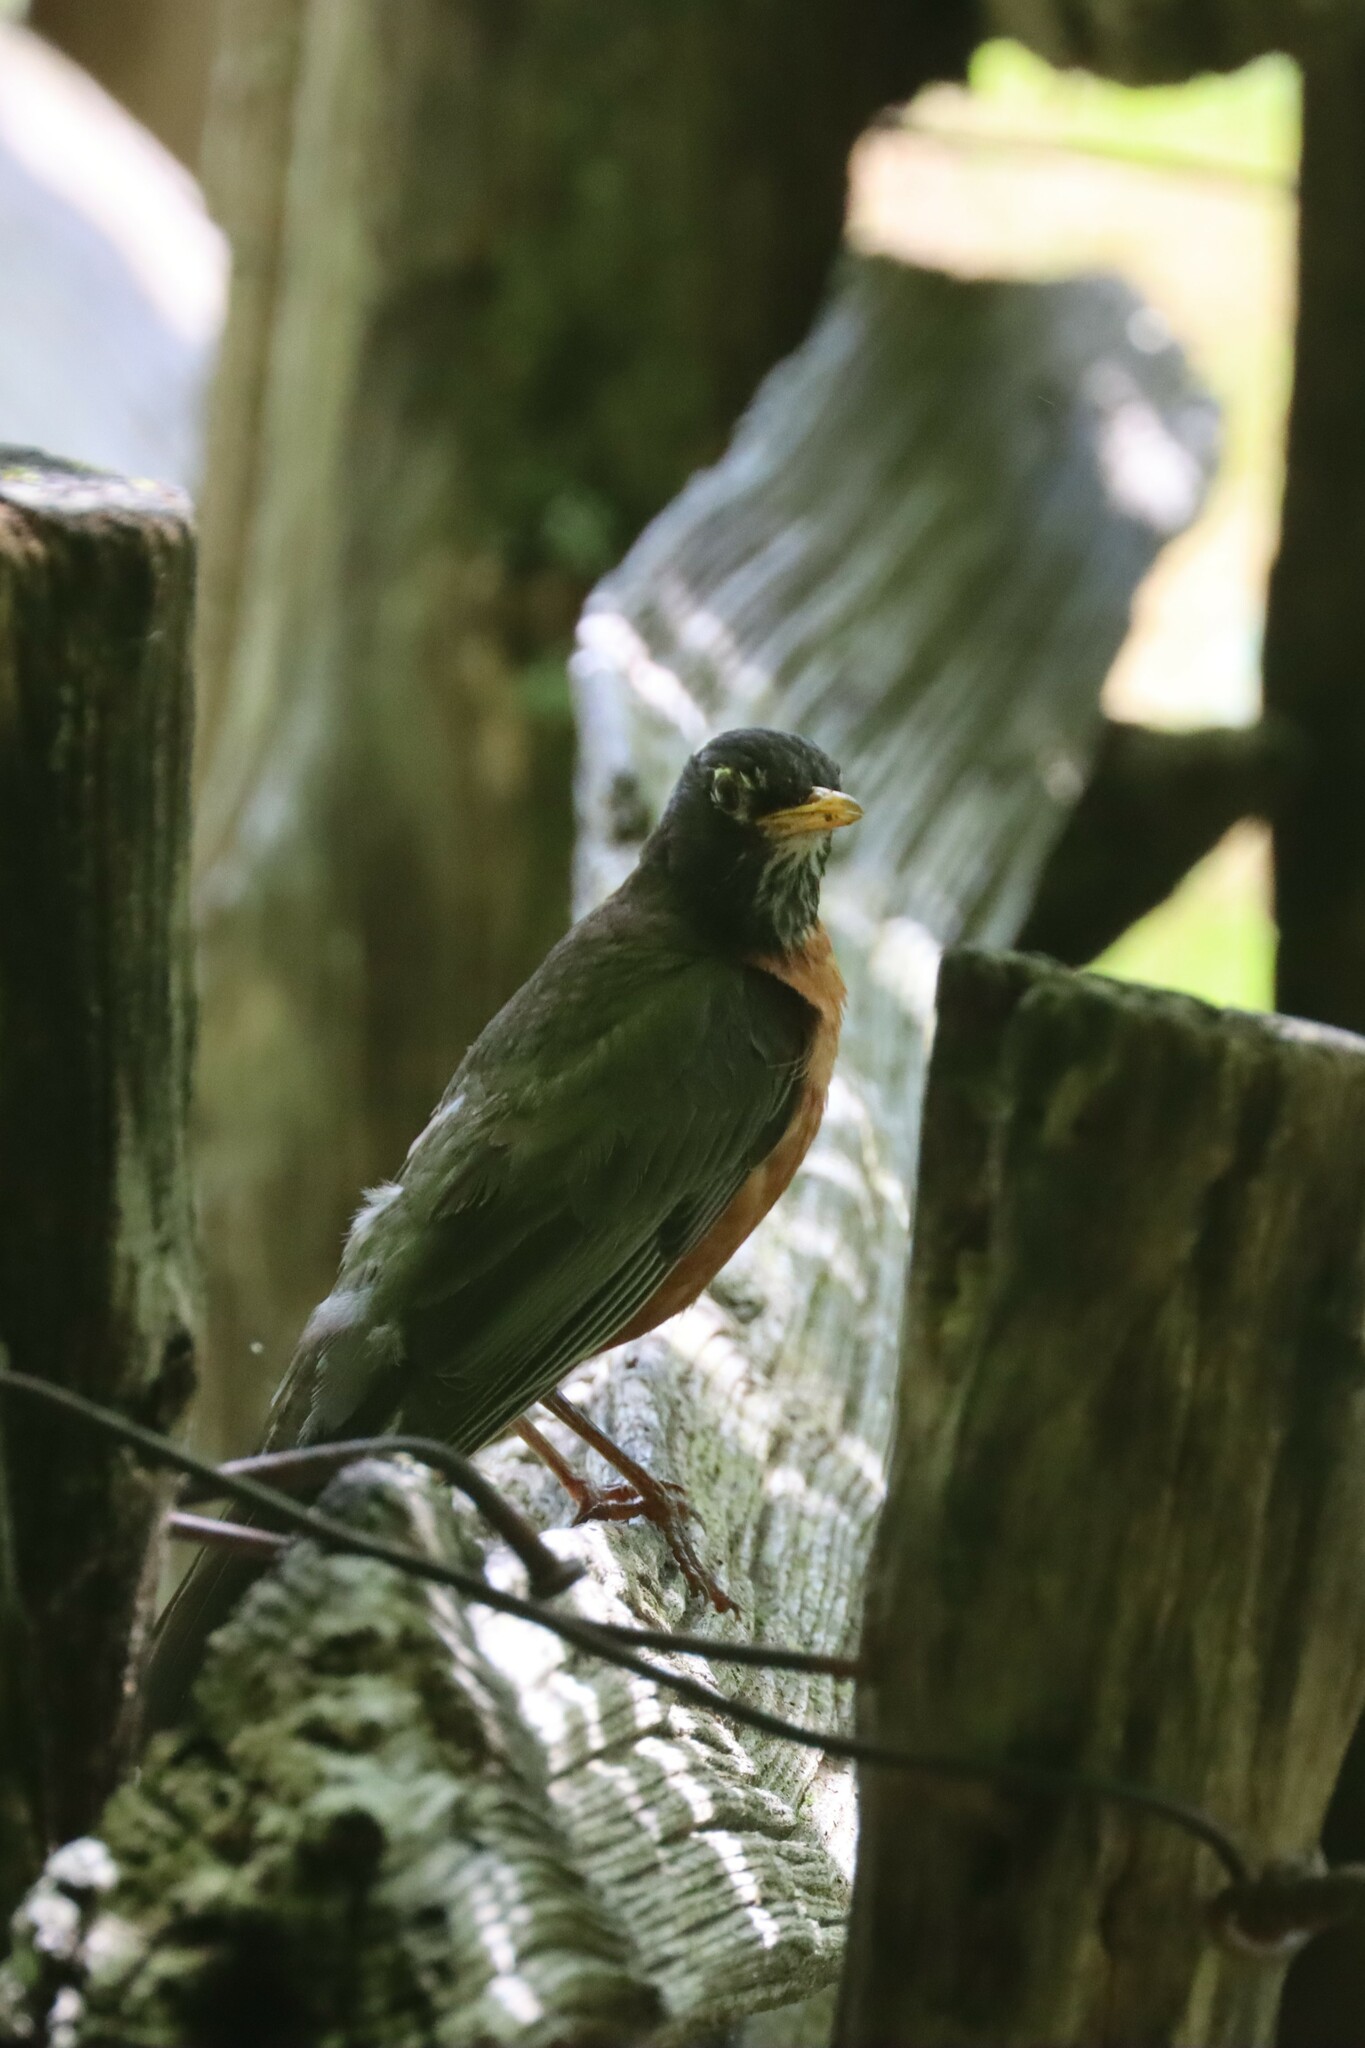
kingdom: Animalia
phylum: Chordata
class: Aves
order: Passeriformes
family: Turdidae
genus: Turdus
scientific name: Turdus migratorius
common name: American robin
